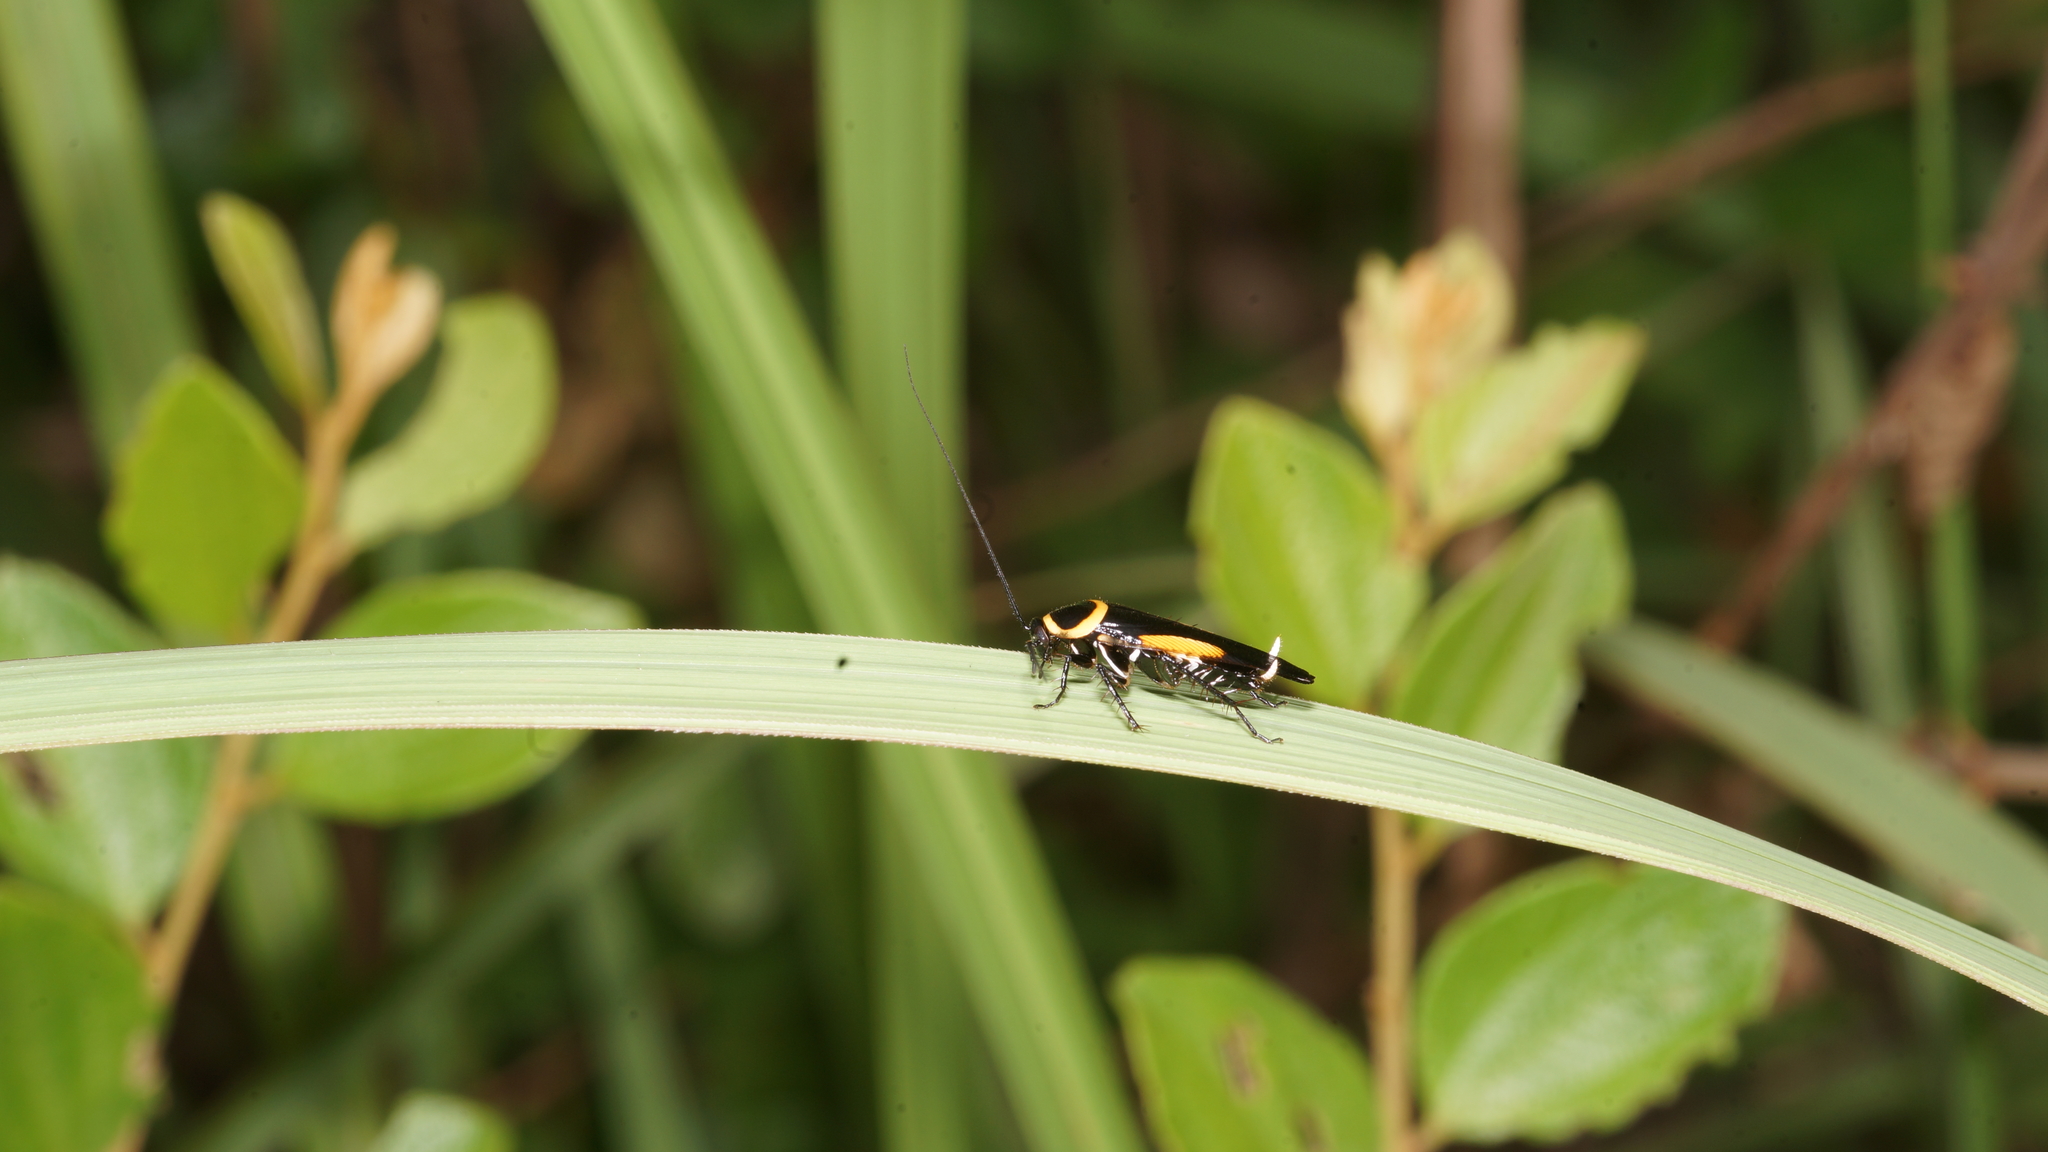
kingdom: Animalia
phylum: Arthropoda
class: Insecta
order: Blattodea
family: Ectobiidae
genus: Hemithyrsocera
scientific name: Hemithyrsocera vittata
